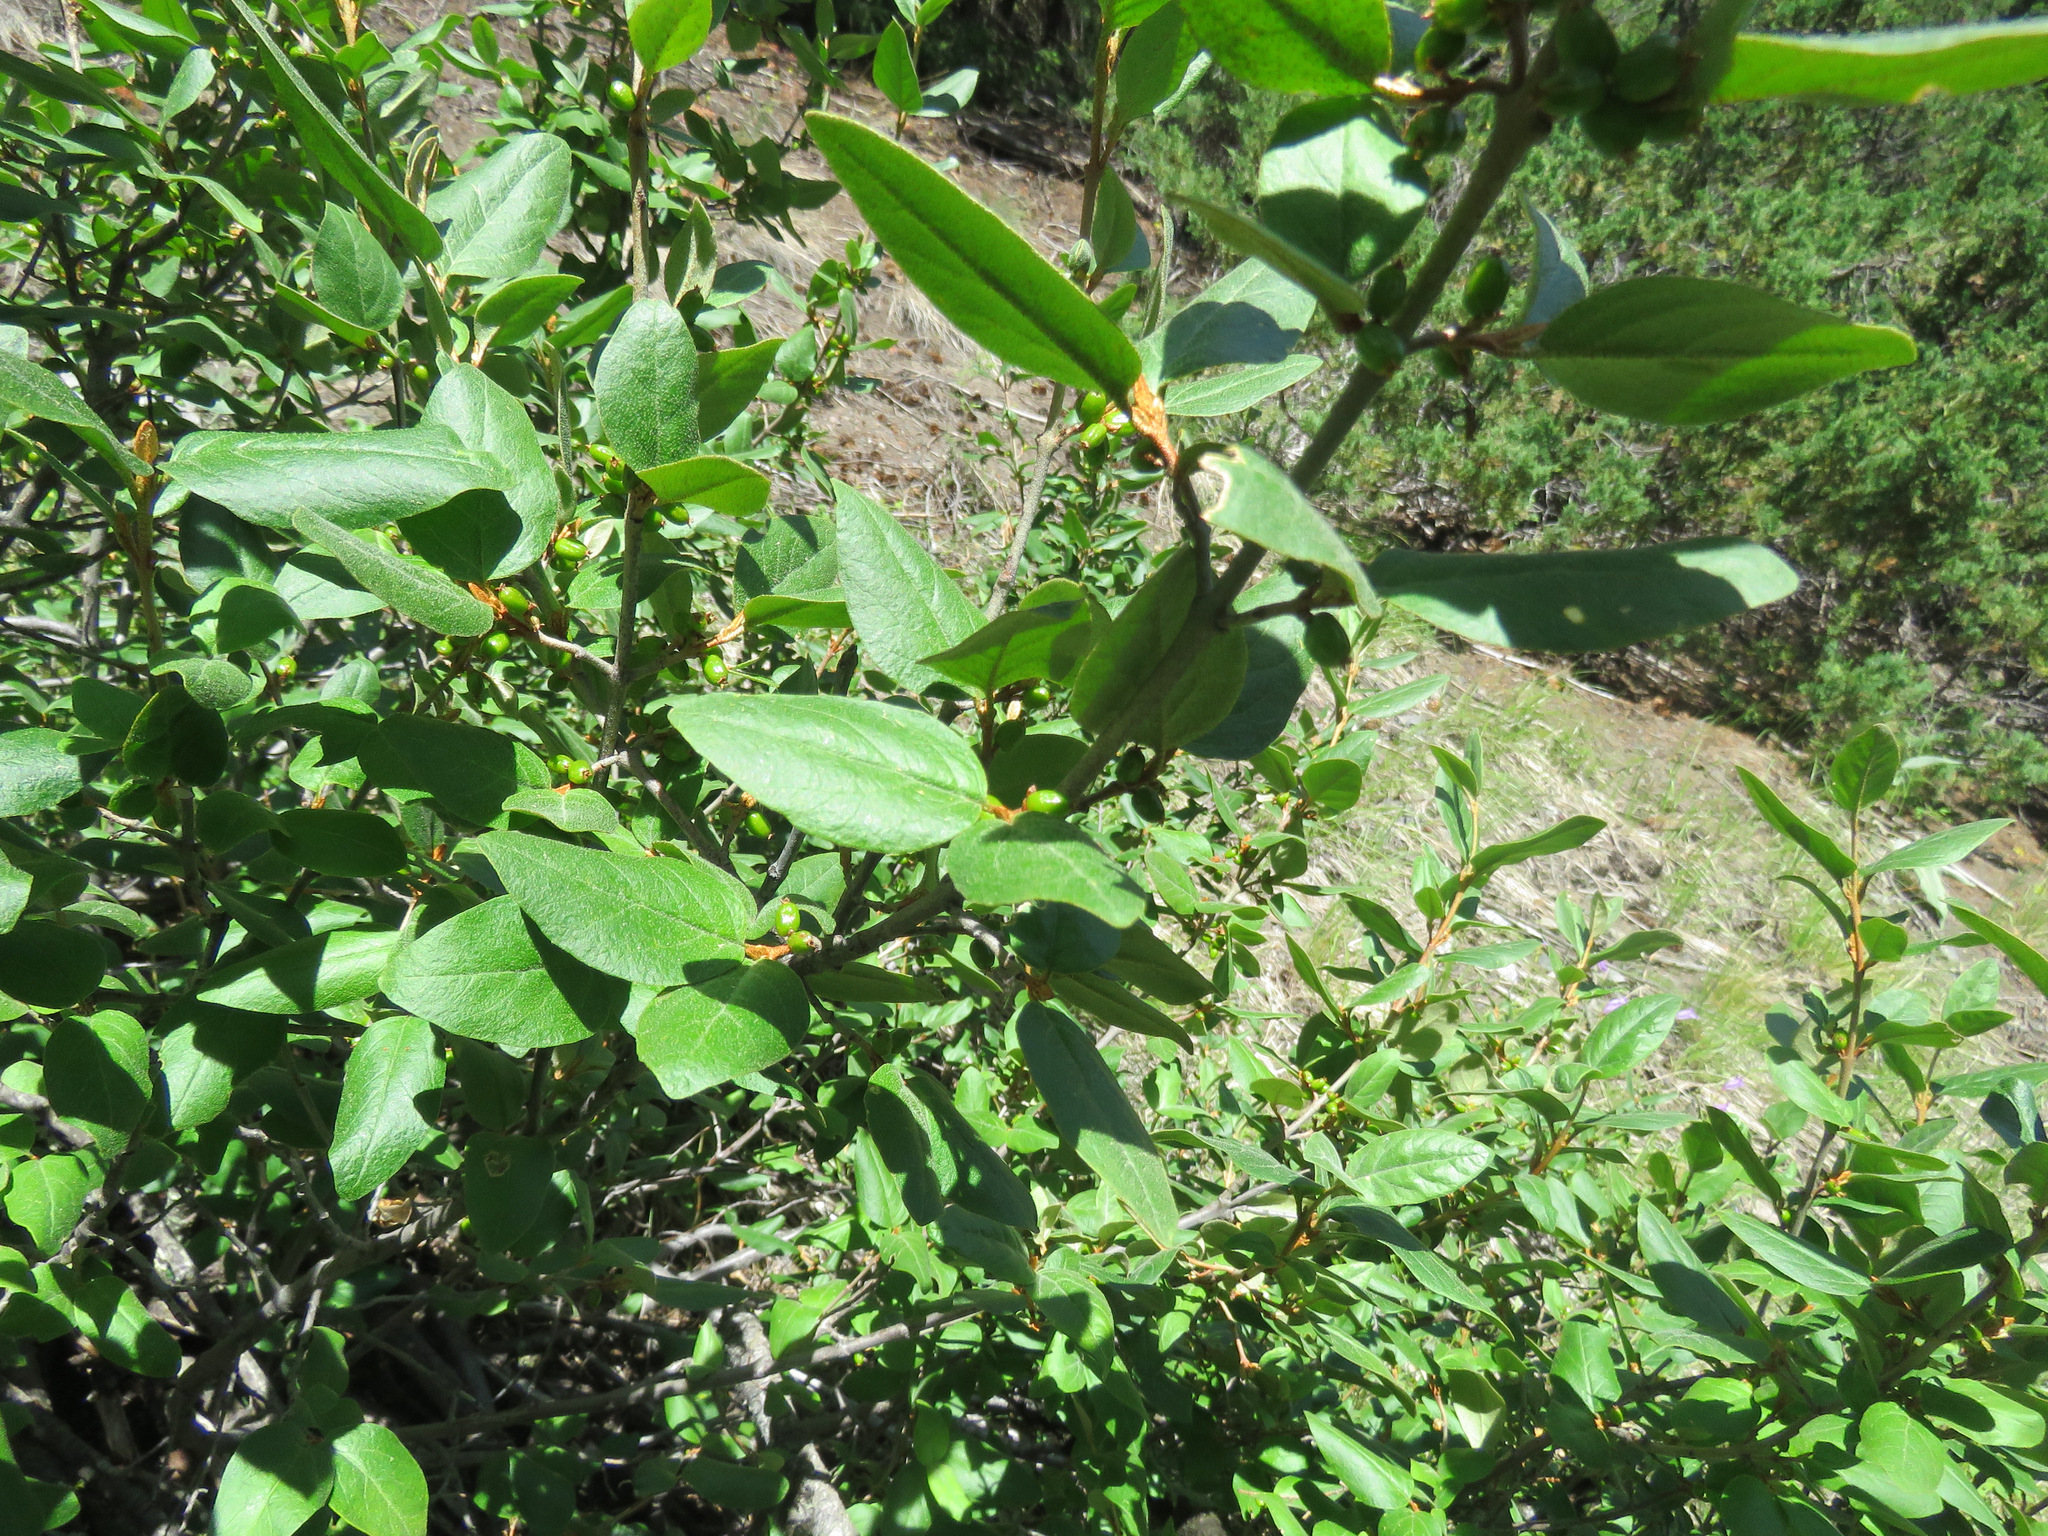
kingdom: Plantae
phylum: Tracheophyta
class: Magnoliopsida
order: Rosales
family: Elaeagnaceae
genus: Shepherdia
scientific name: Shepherdia canadensis
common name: Soapberry
